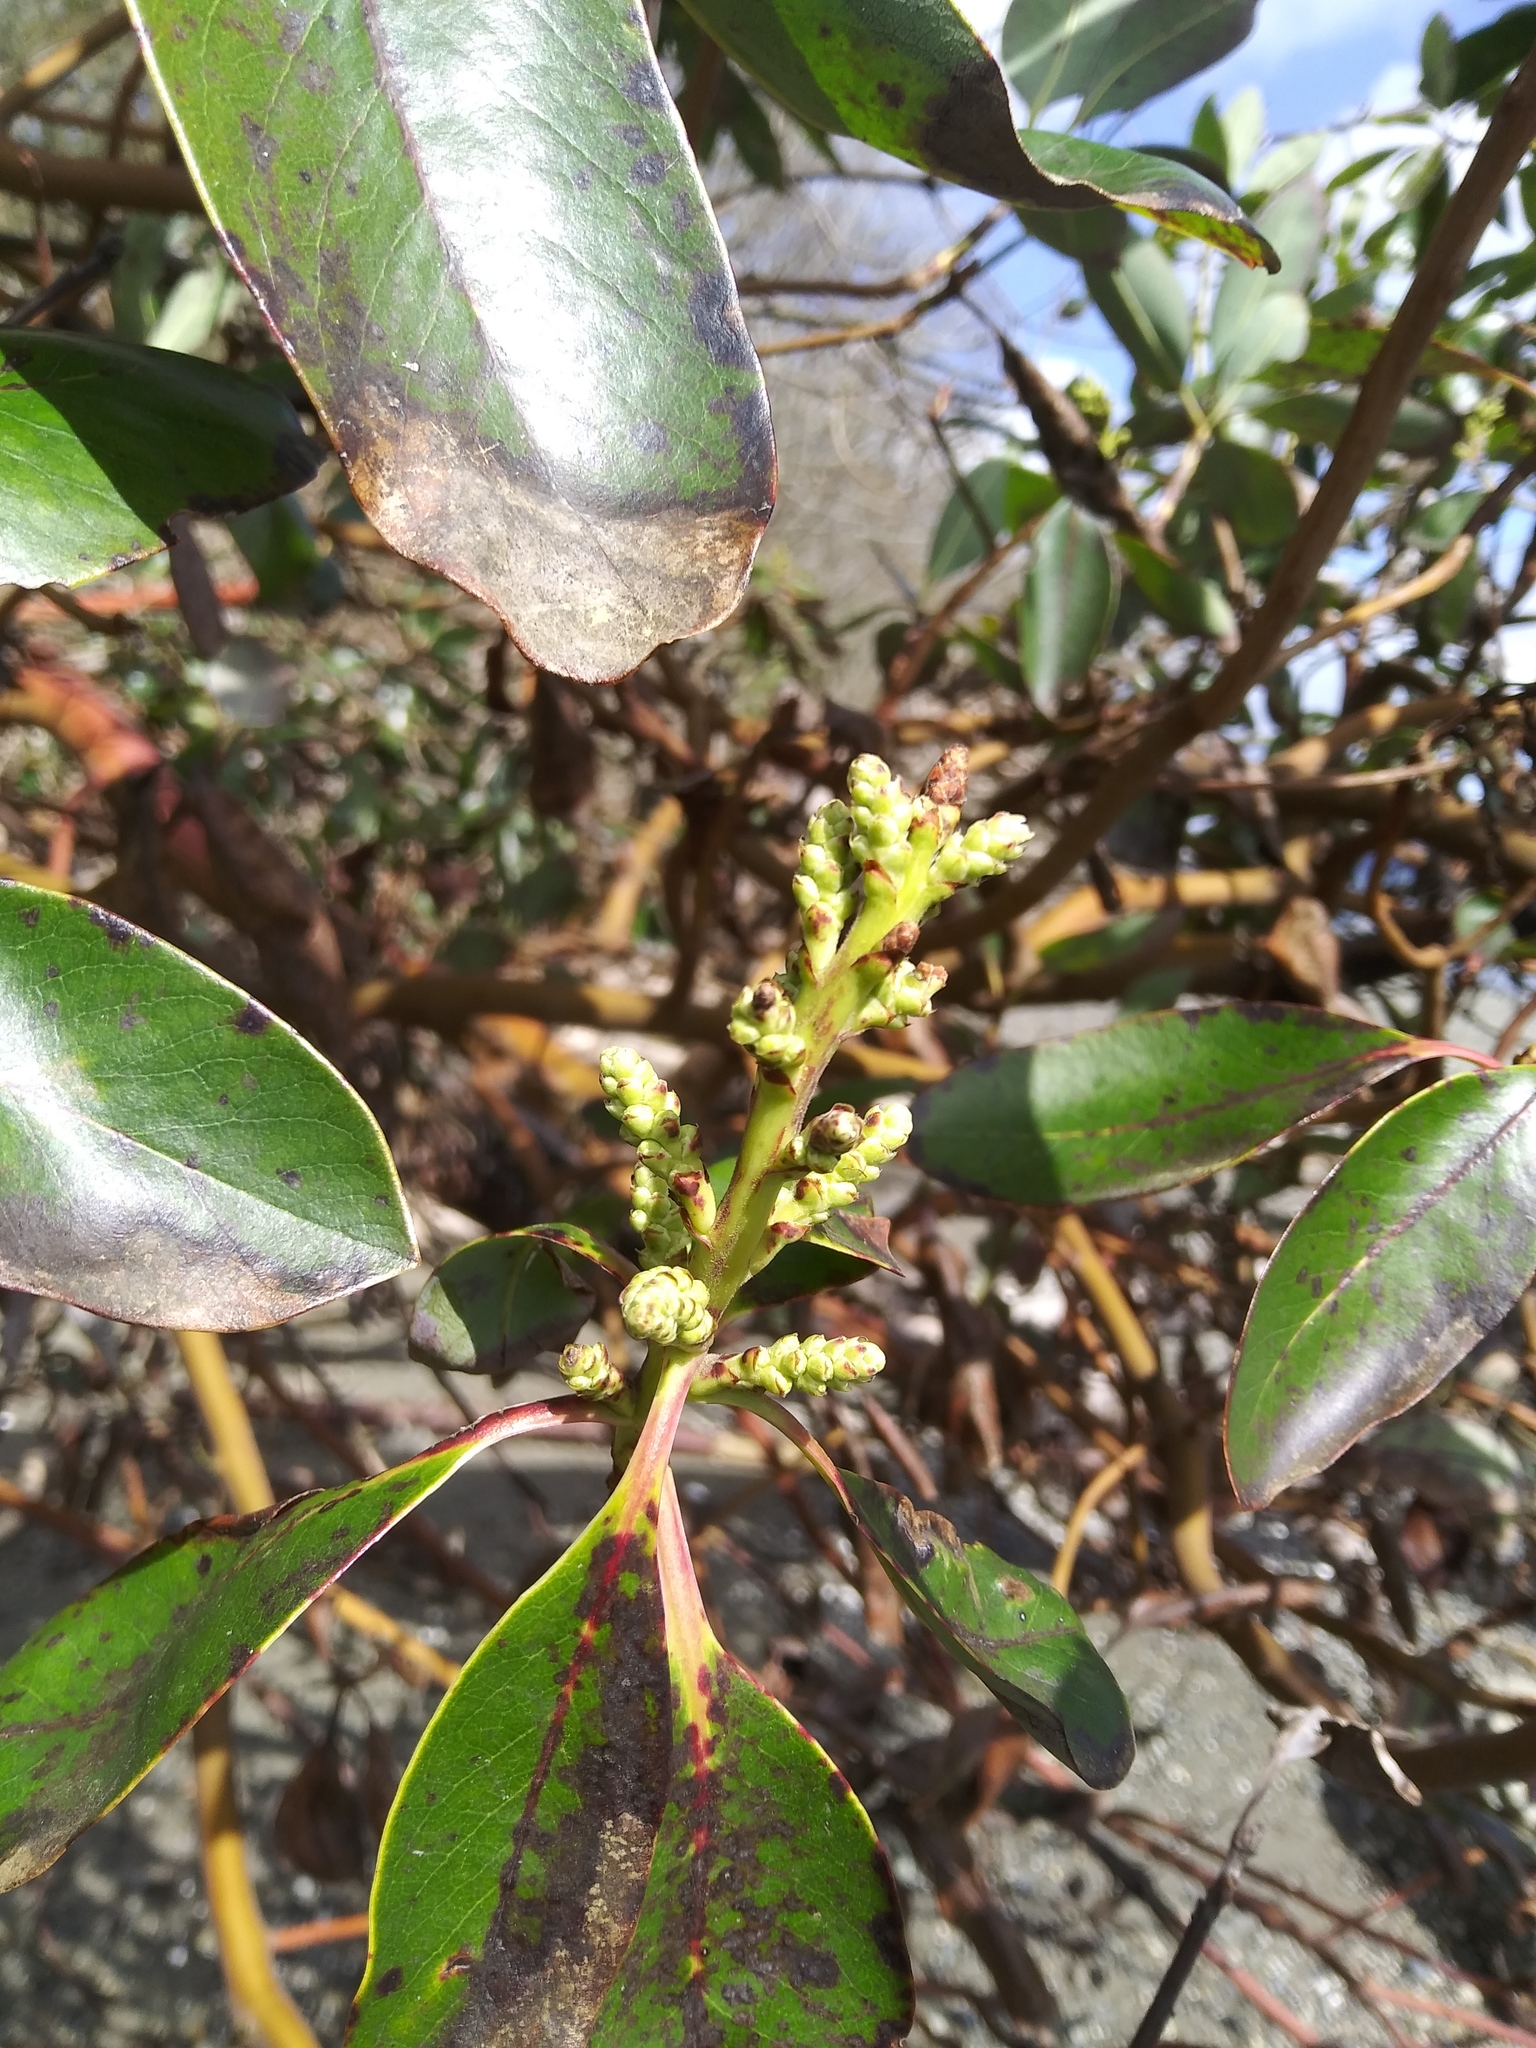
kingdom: Plantae
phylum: Tracheophyta
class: Magnoliopsida
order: Ericales
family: Ericaceae
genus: Arbutus
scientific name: Arbutus menziesii
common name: Pacific madrone
